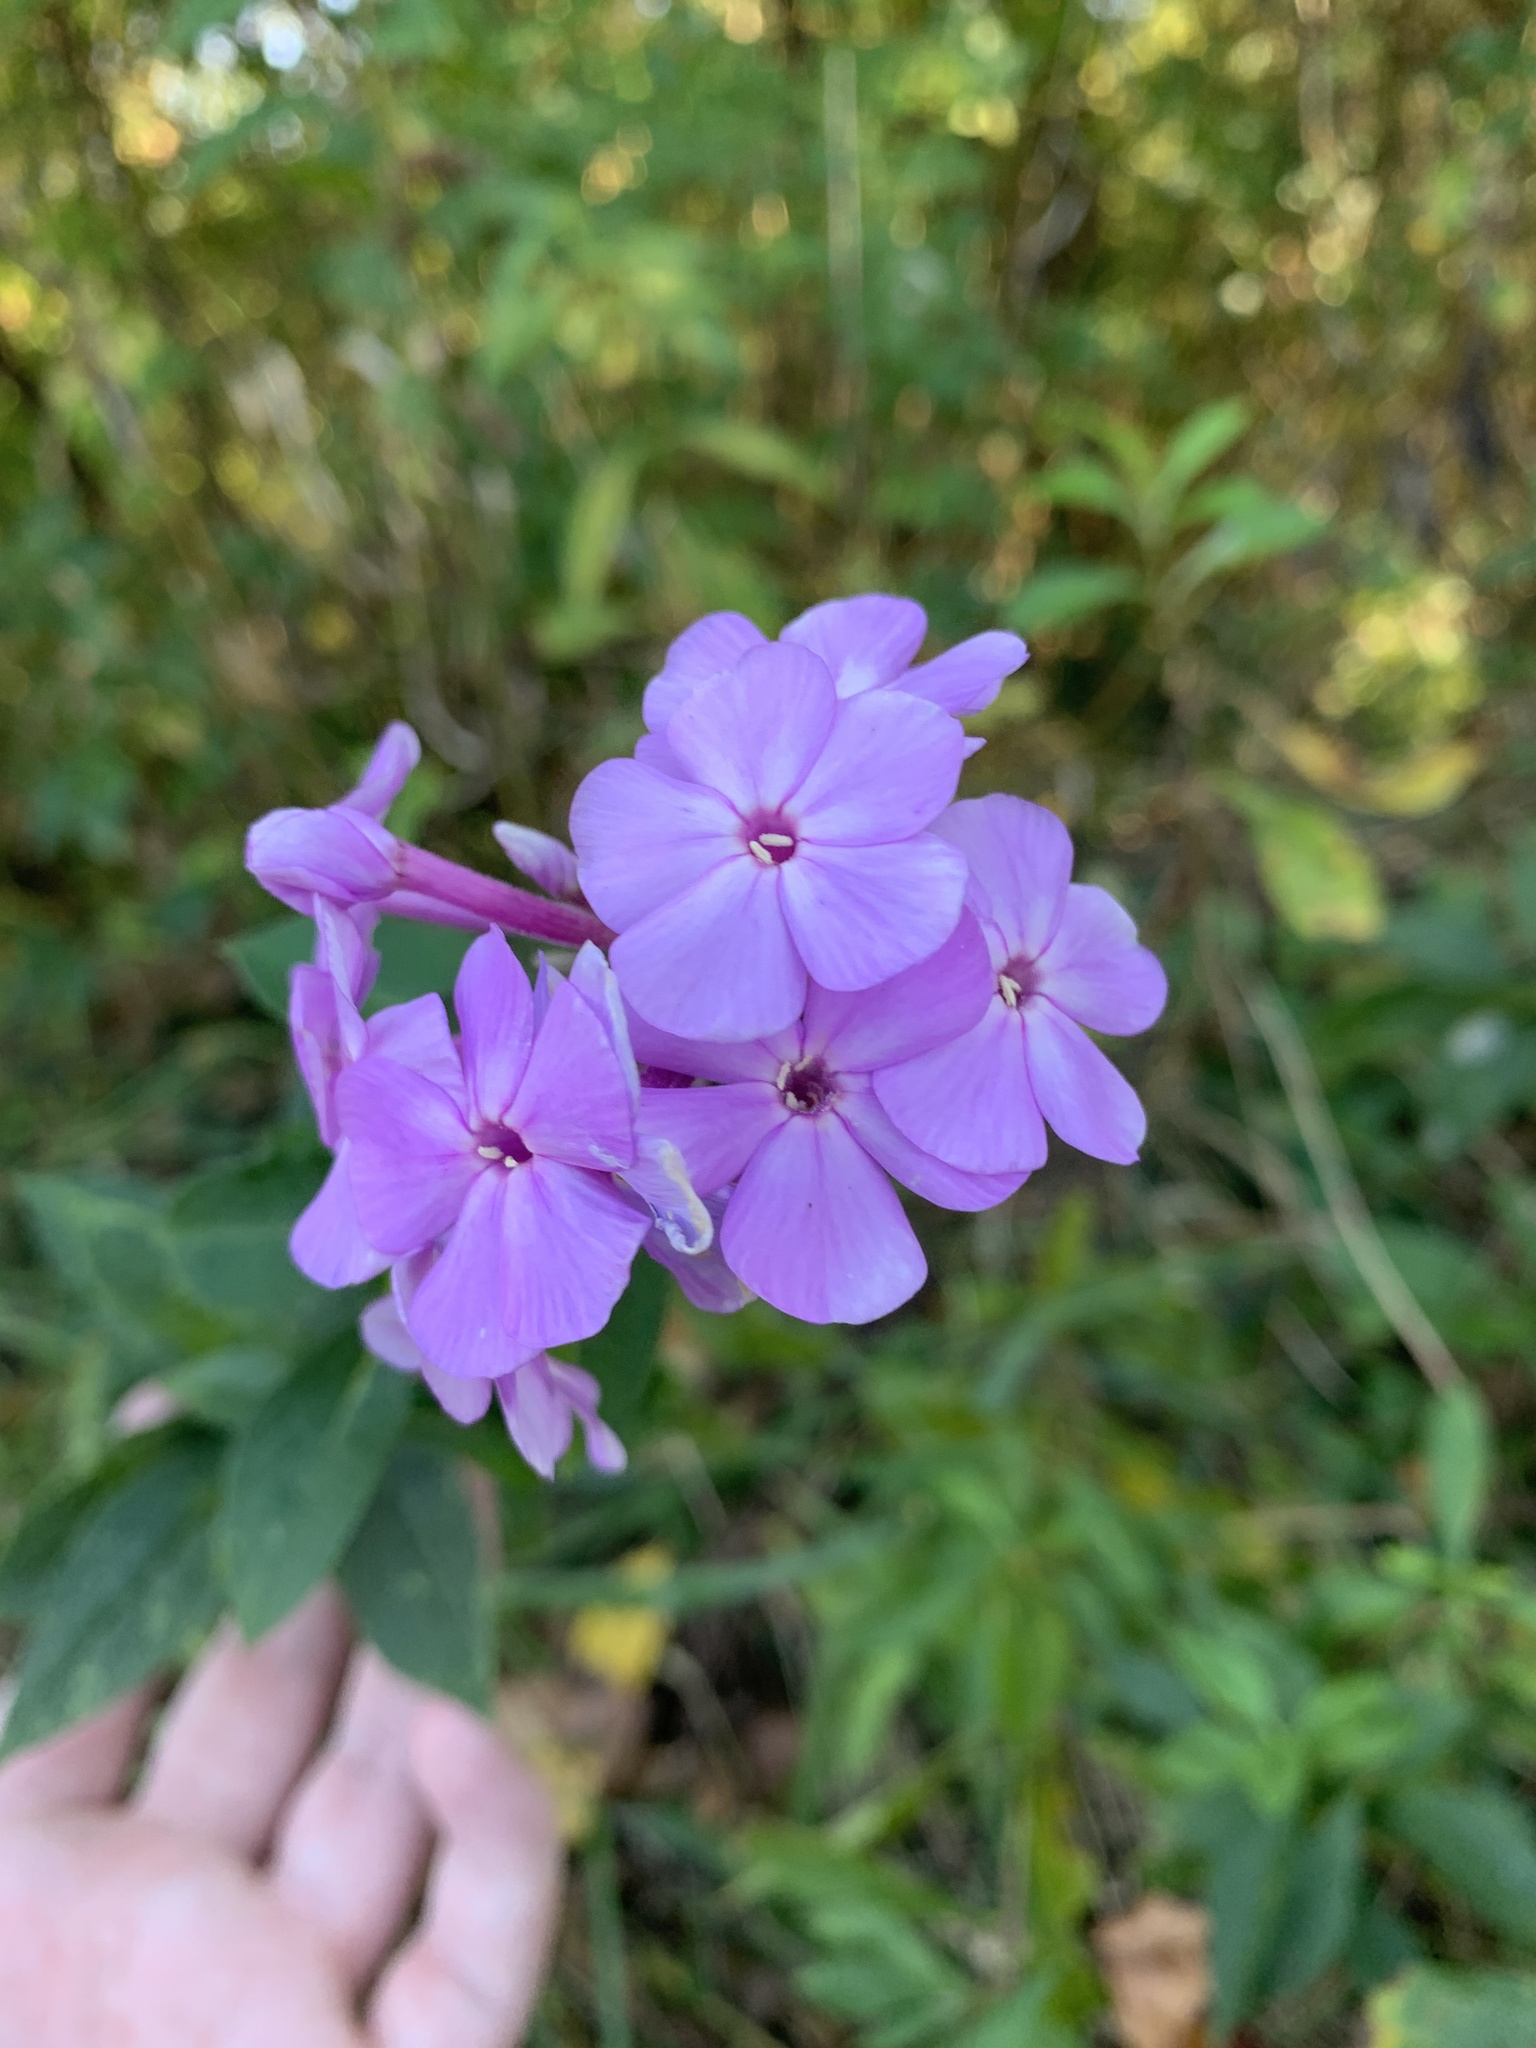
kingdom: Plantae
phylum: Tracheophyta
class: Magnoliopsida
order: Ericales
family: Polemoniaceae
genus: Phlox
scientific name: Phlox paniculata
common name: Fall phlox
